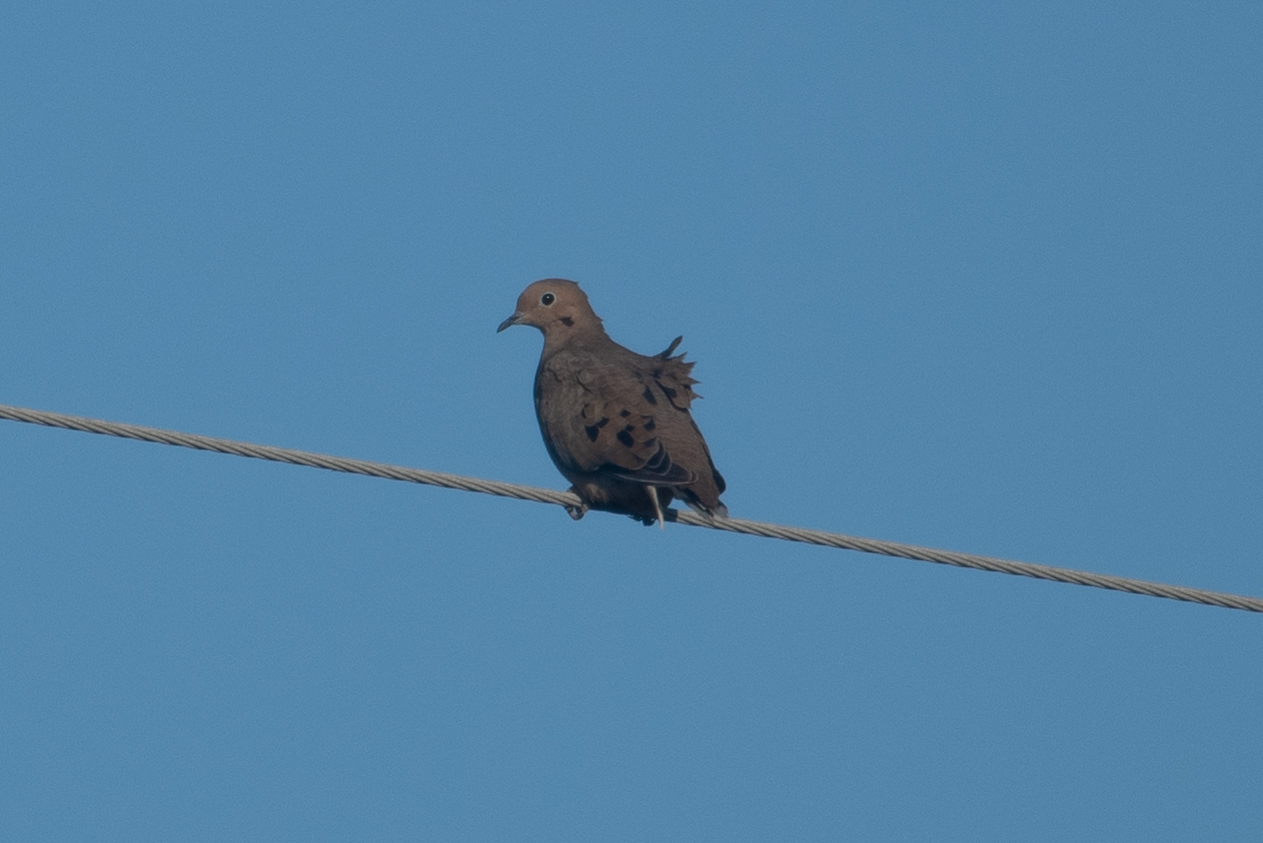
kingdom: Animalia
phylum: Chordata
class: Aves
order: Columbiformes
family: Columbidae
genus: Zenaida
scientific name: Zenaida macroura
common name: Mourning dove
